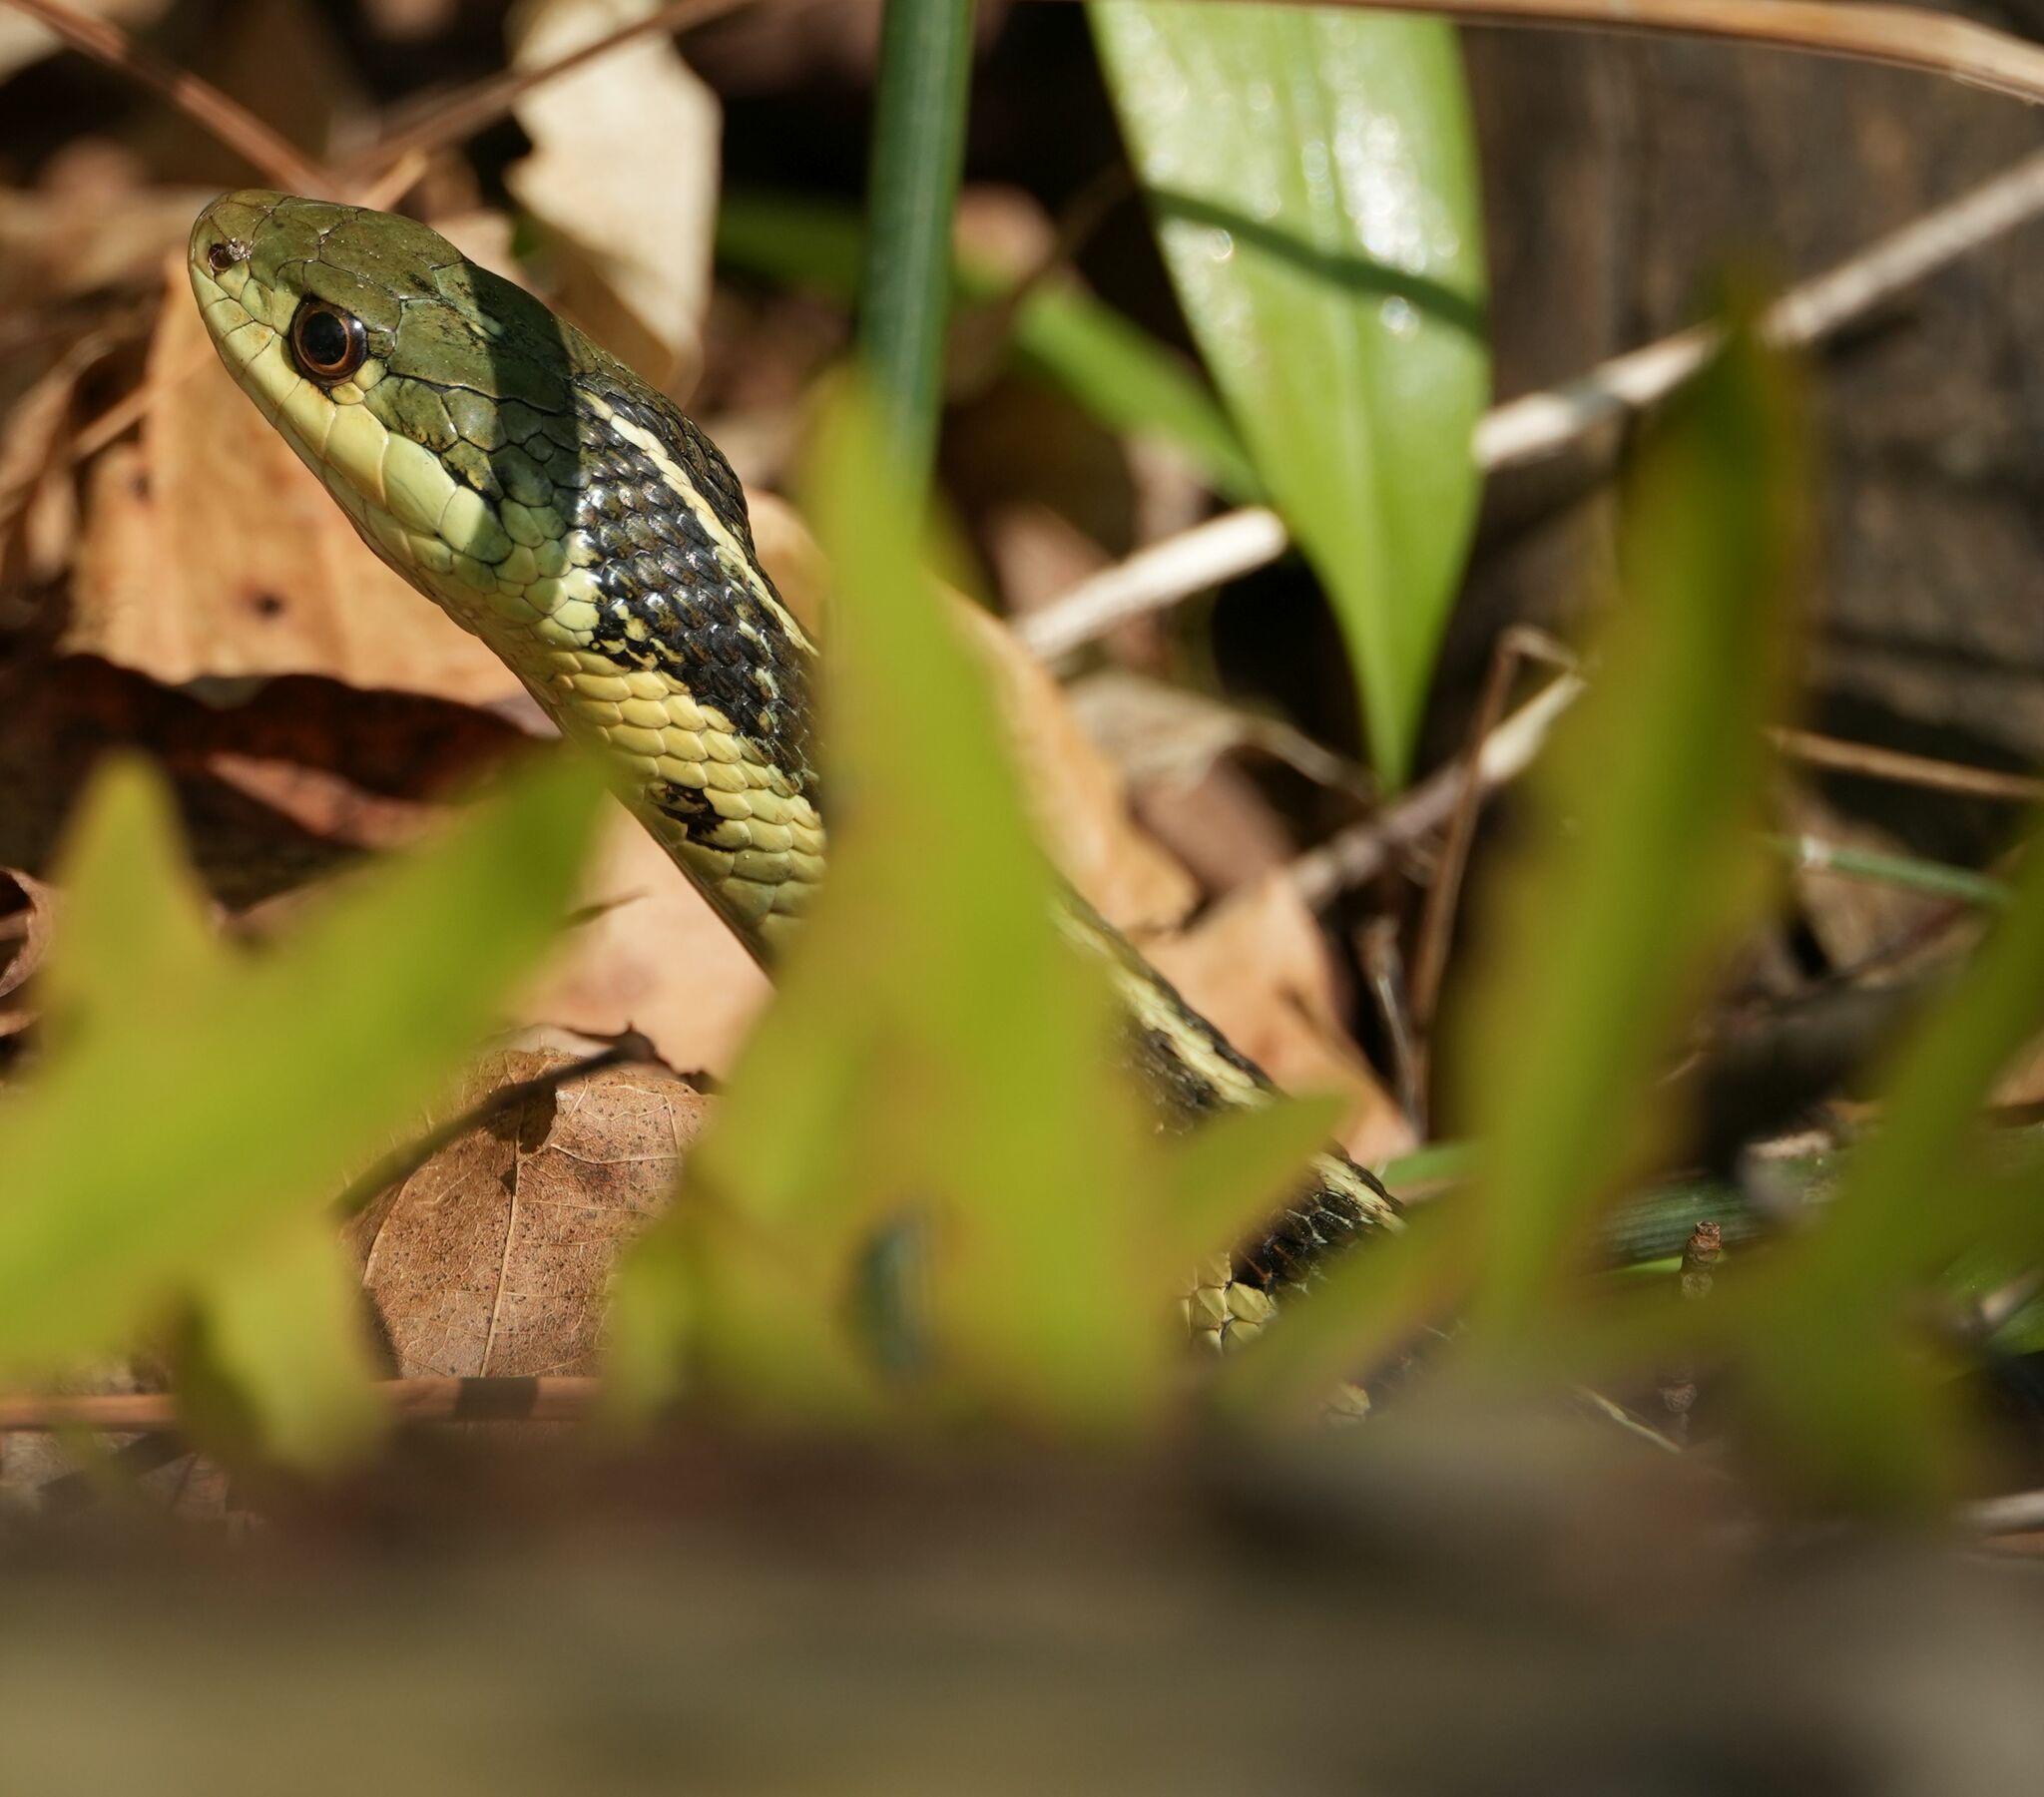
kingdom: Animalia
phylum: Chordata
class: Squamata
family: Colubridae
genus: Thamnophis
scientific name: Thamnophis sirtalis
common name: Common garter snake
